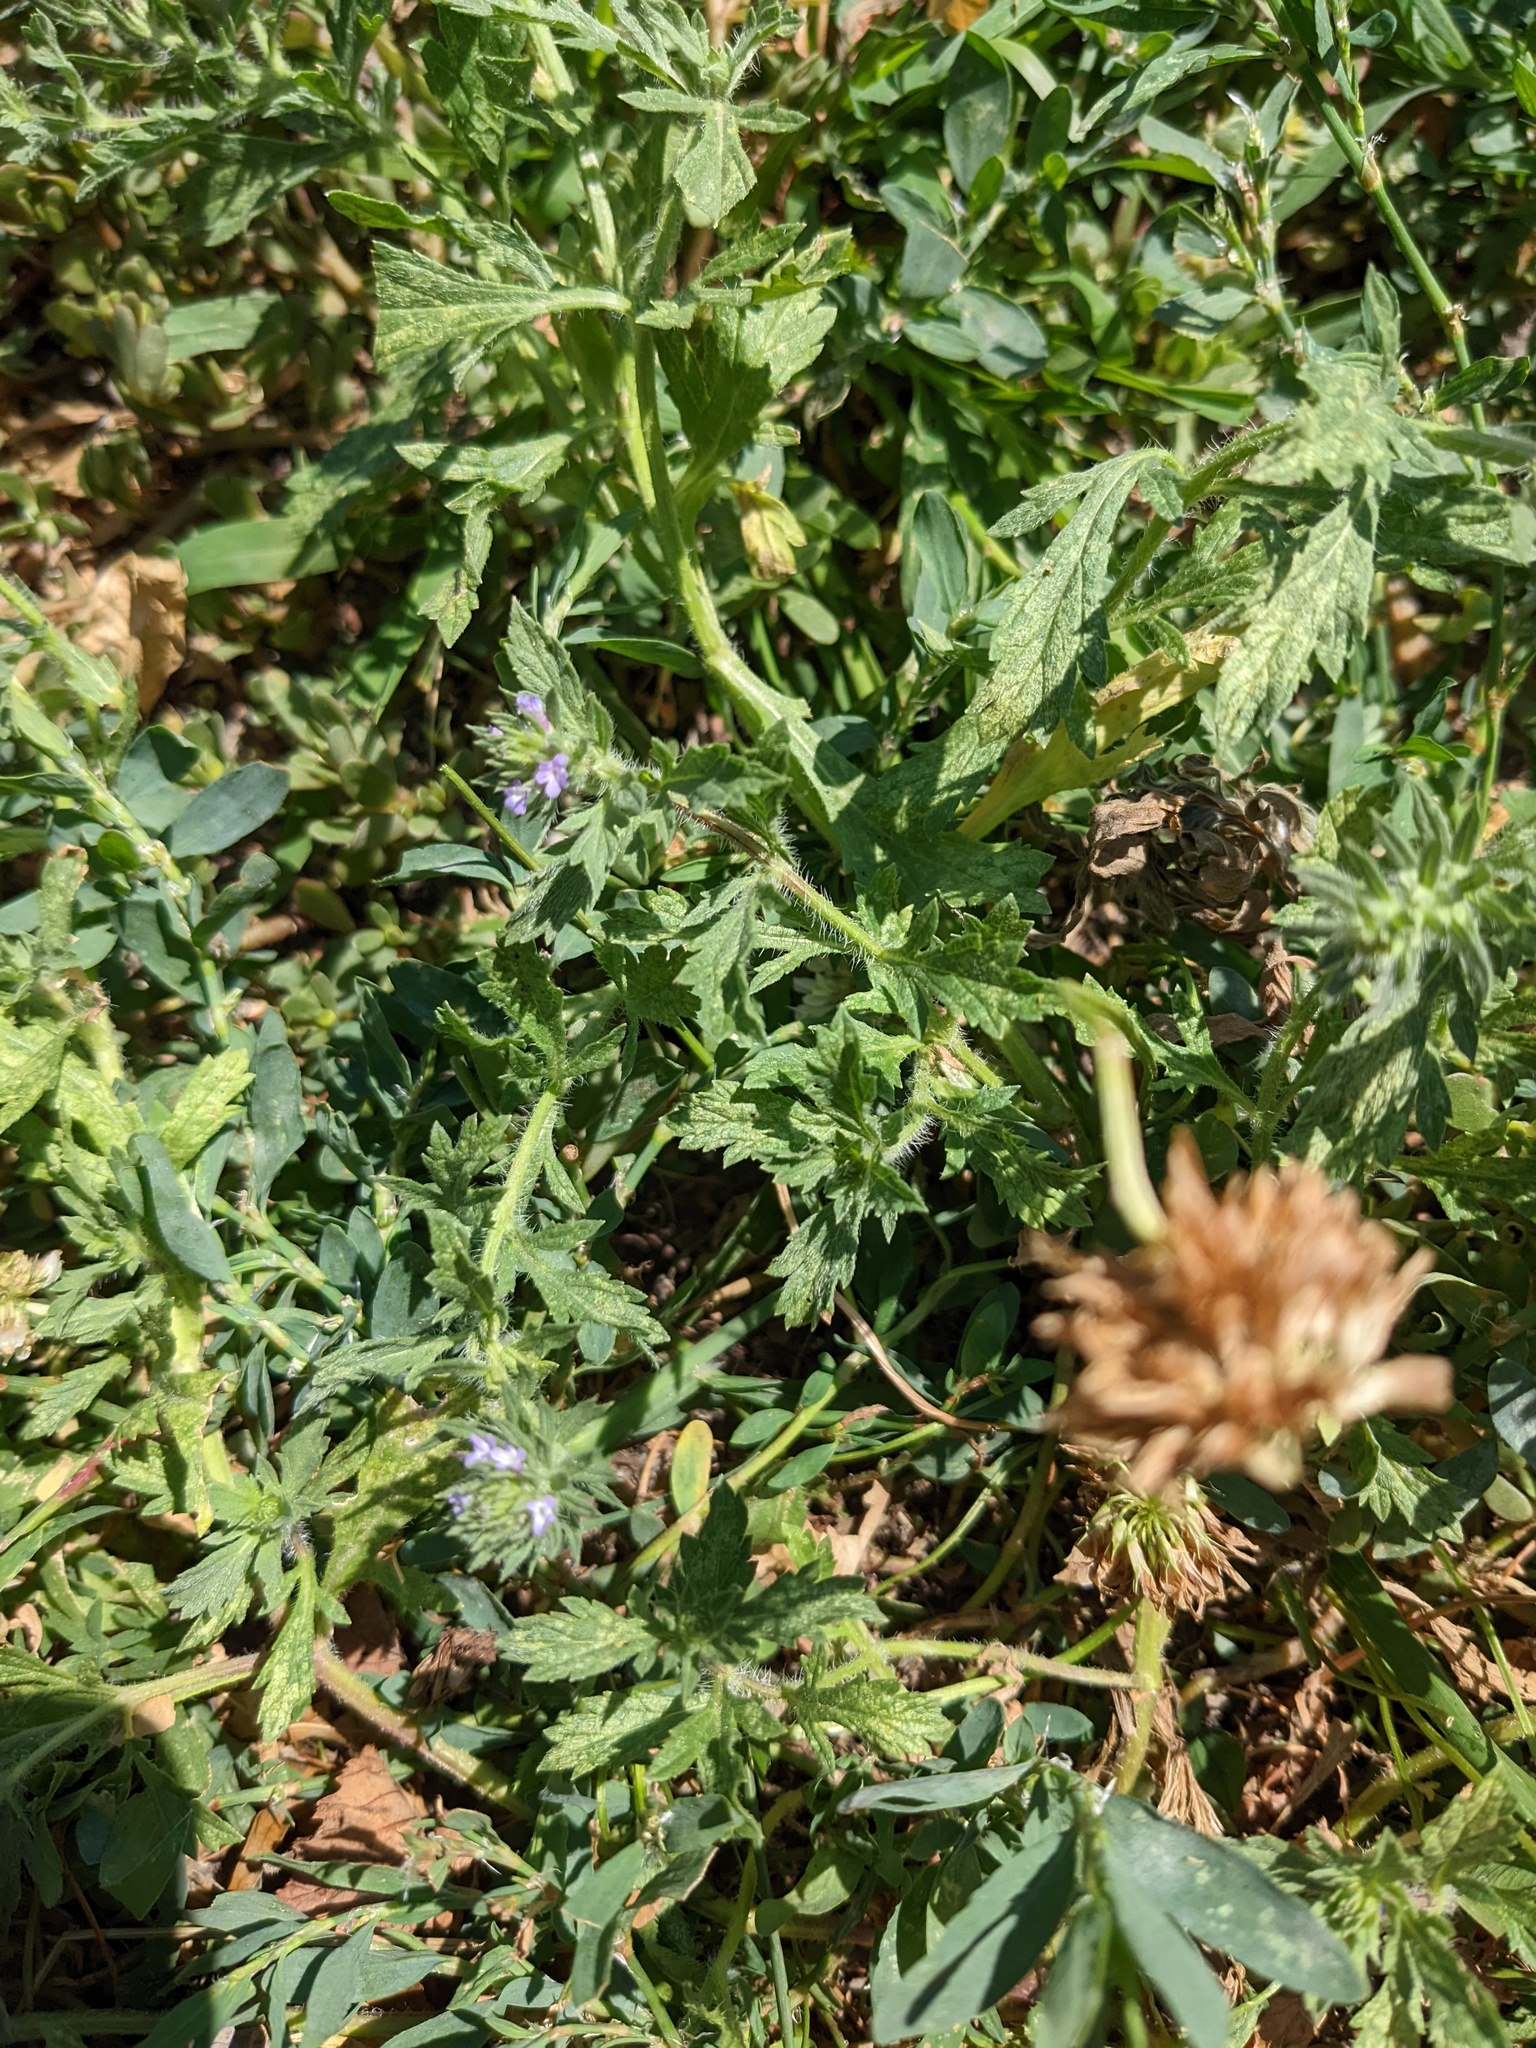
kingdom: Plantae
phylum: Tracheophyta
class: Magnoliopsida
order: Lamiales
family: Verbenaceae
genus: Verbena
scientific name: Verbena bracteata
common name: Bracted vervain
